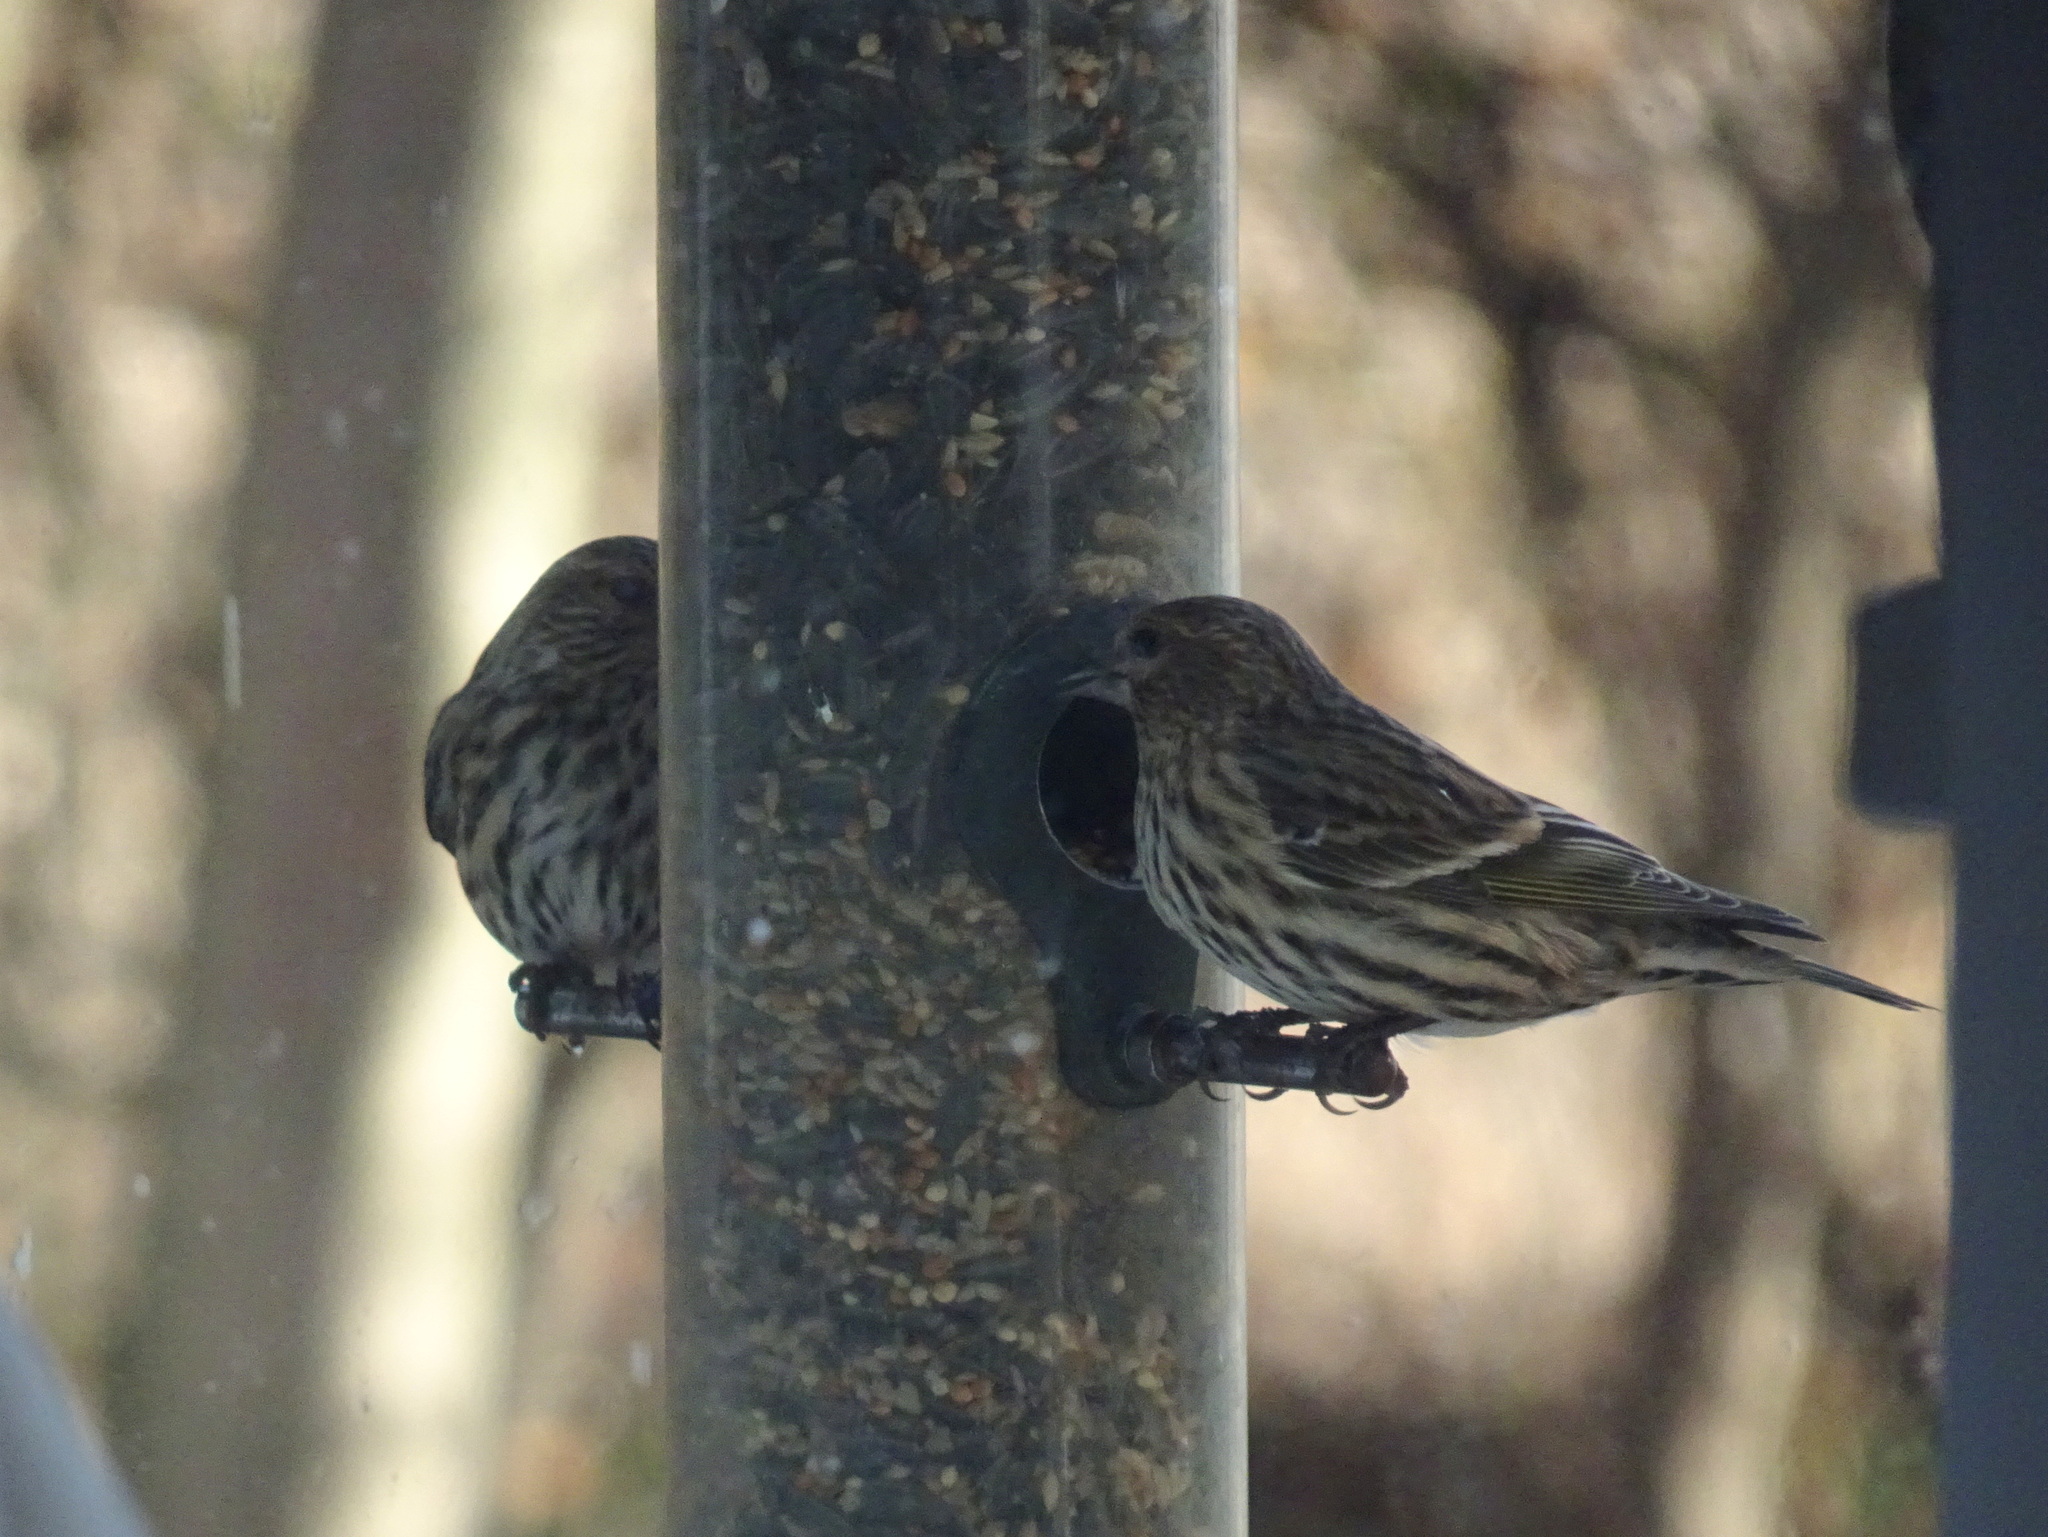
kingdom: Animalia
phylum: Chordata
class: Aves
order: Passeriformes
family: Fringillidae
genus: Spinus
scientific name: Spinus pinus
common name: Pine siskin
